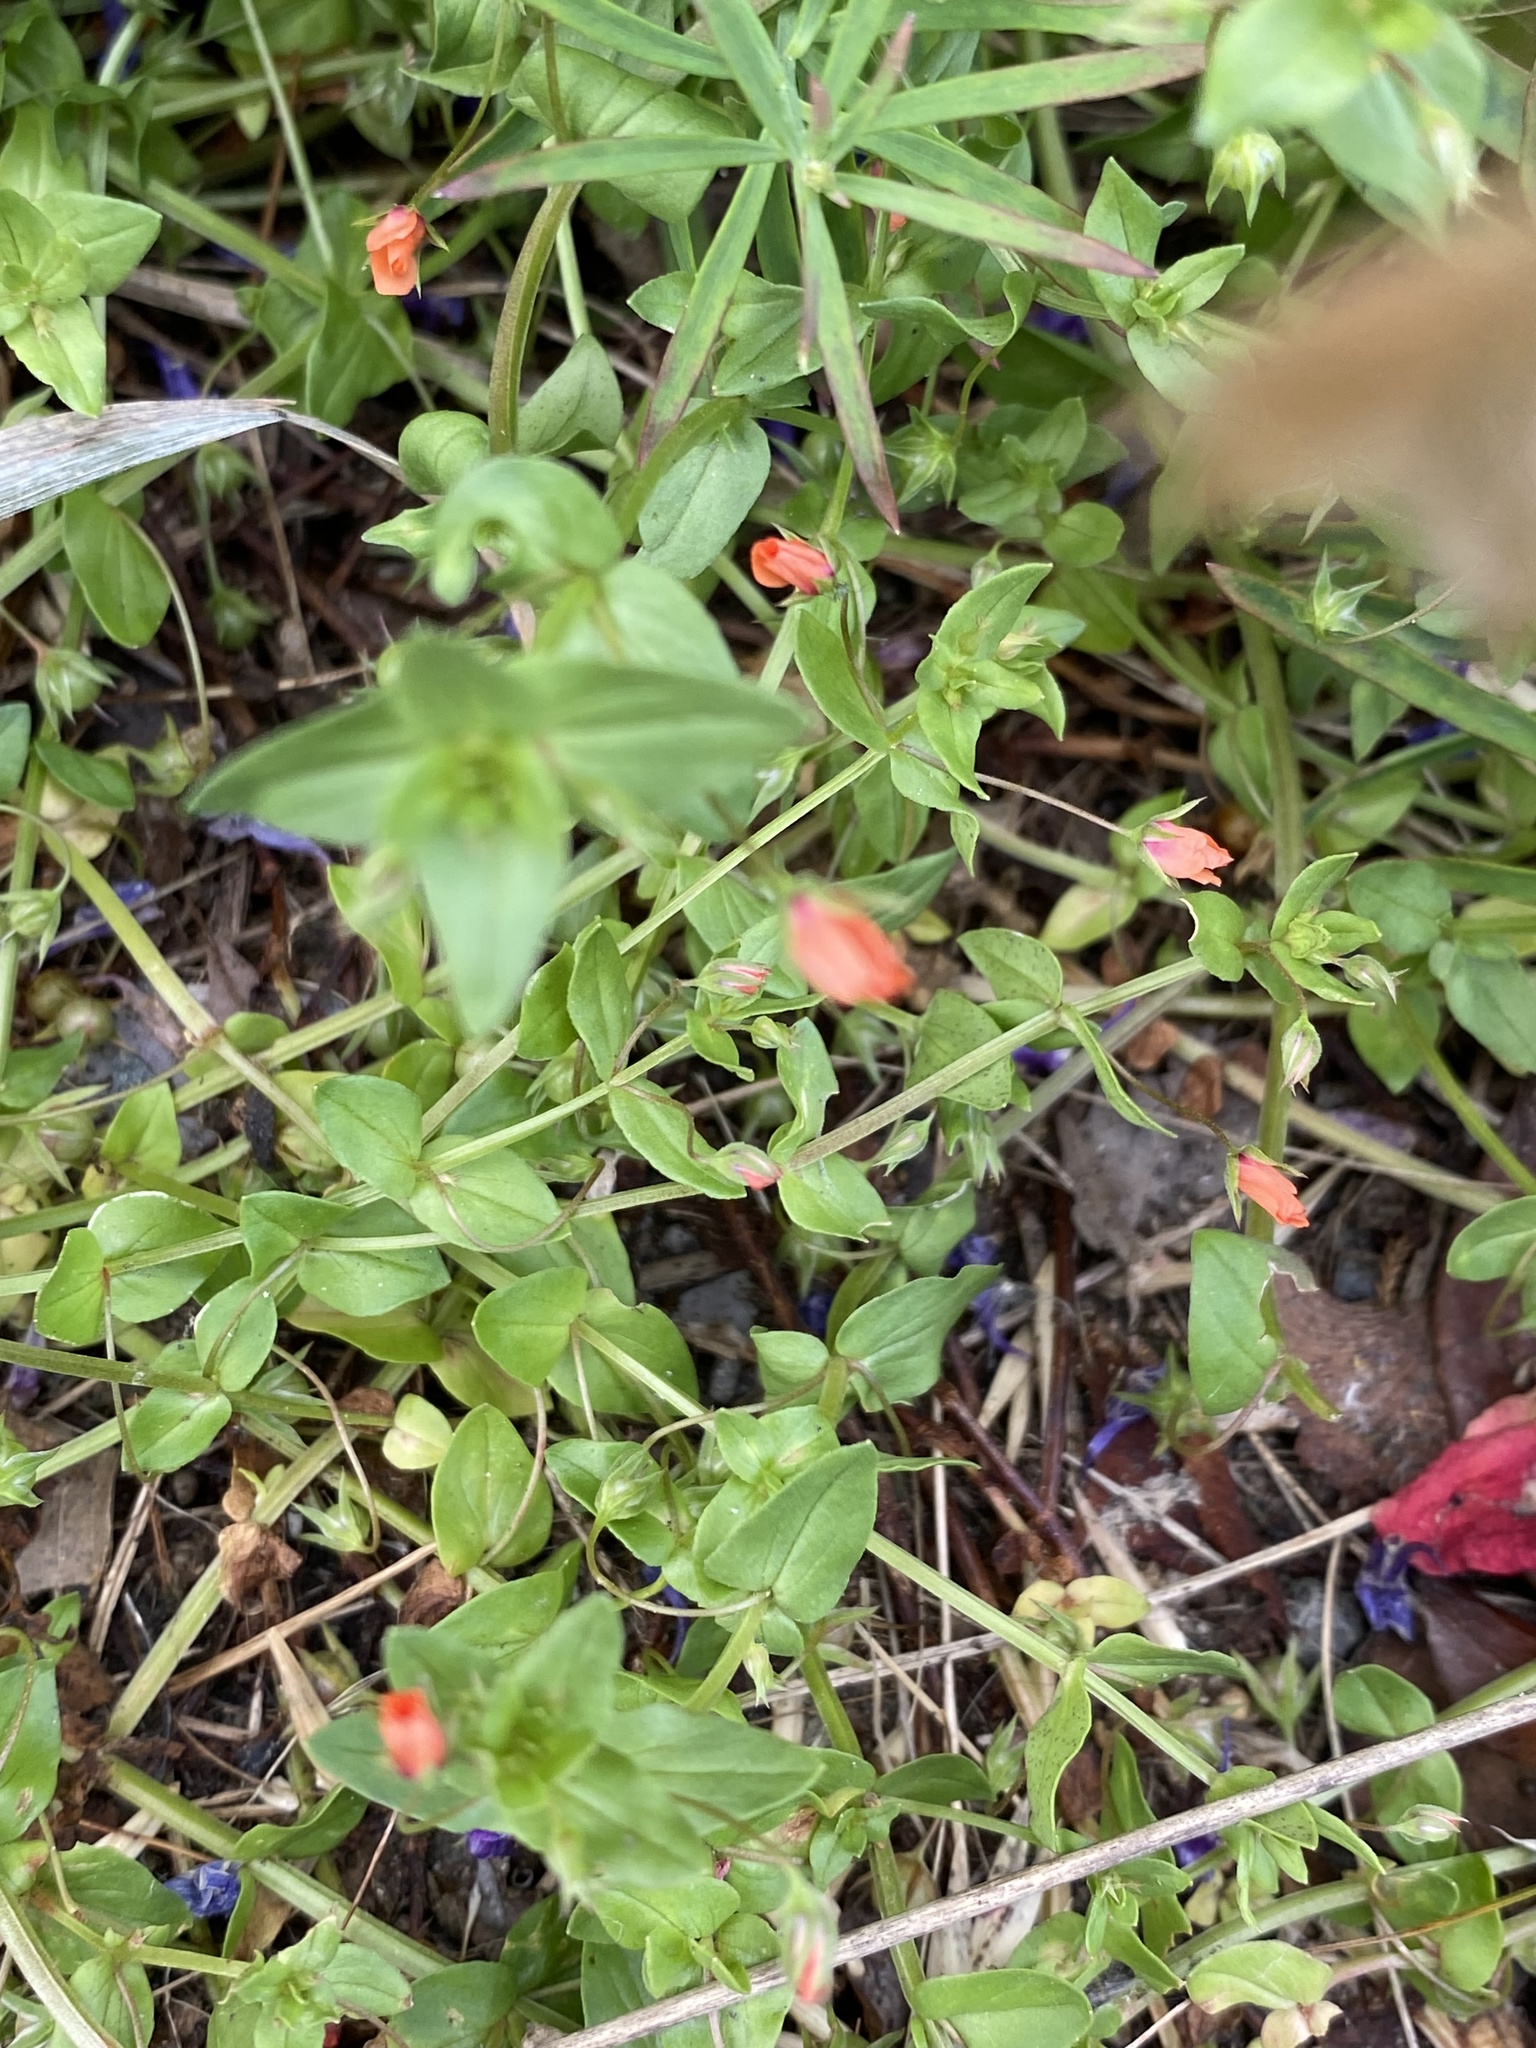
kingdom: Plantae
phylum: Tracheophyta
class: Magnoliopsida
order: Ericales
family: Primulaceae
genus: Lysimachia
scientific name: Lysimachia arvensis
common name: Scarlet pimpernel
